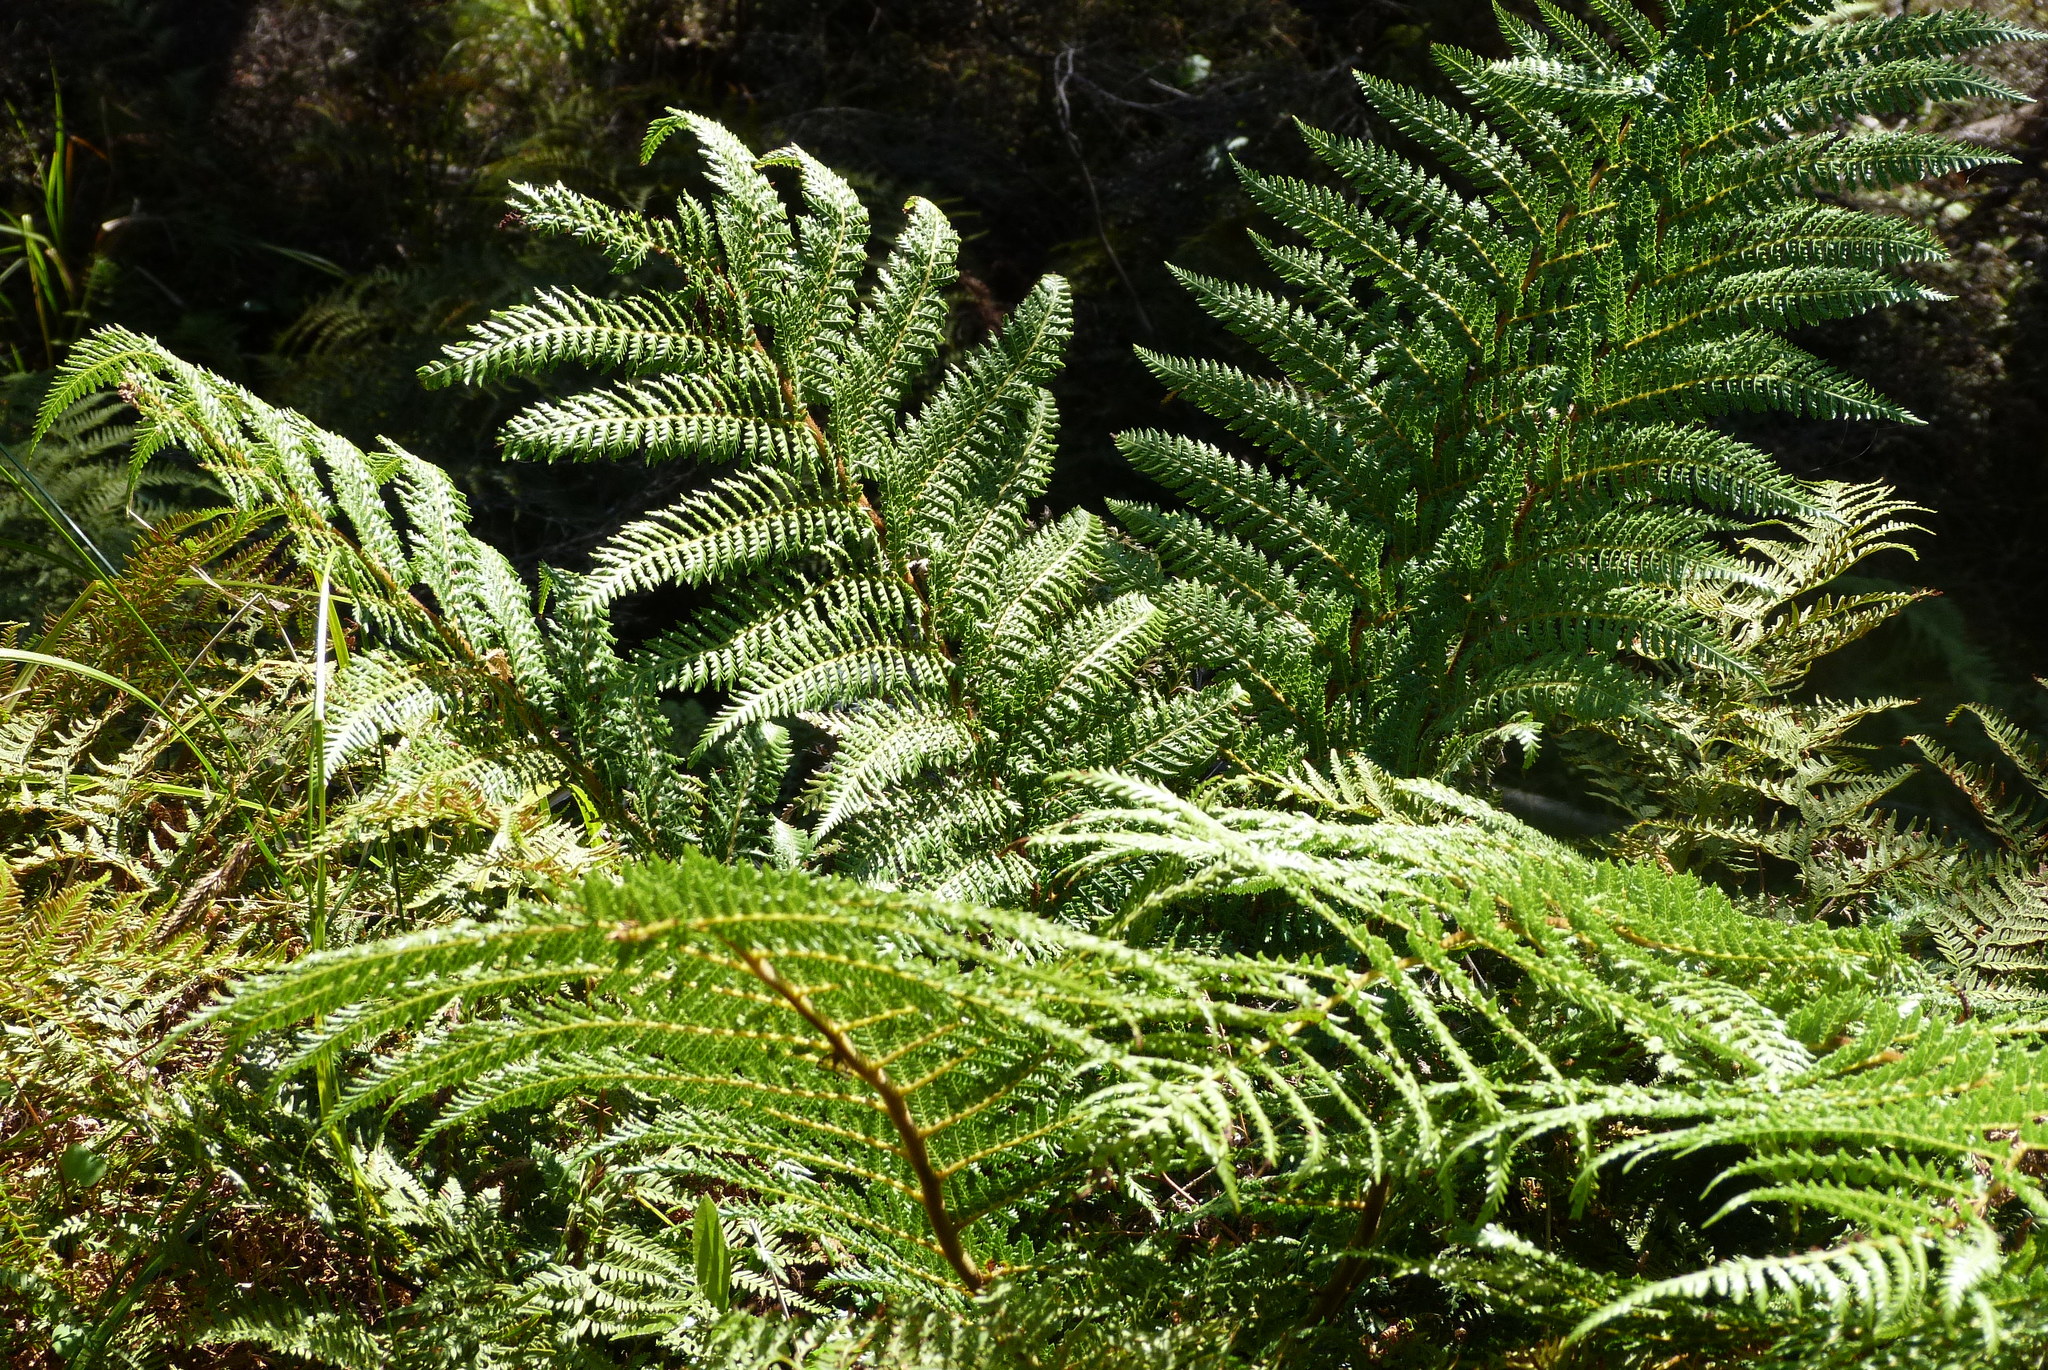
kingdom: Plantae
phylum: Tracheophyta
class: Polypodiopsida
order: Cyatheales
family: Dicksoniaceae
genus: Dicksonia
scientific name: Dicksonia fibrosa
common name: Golden tree fern
